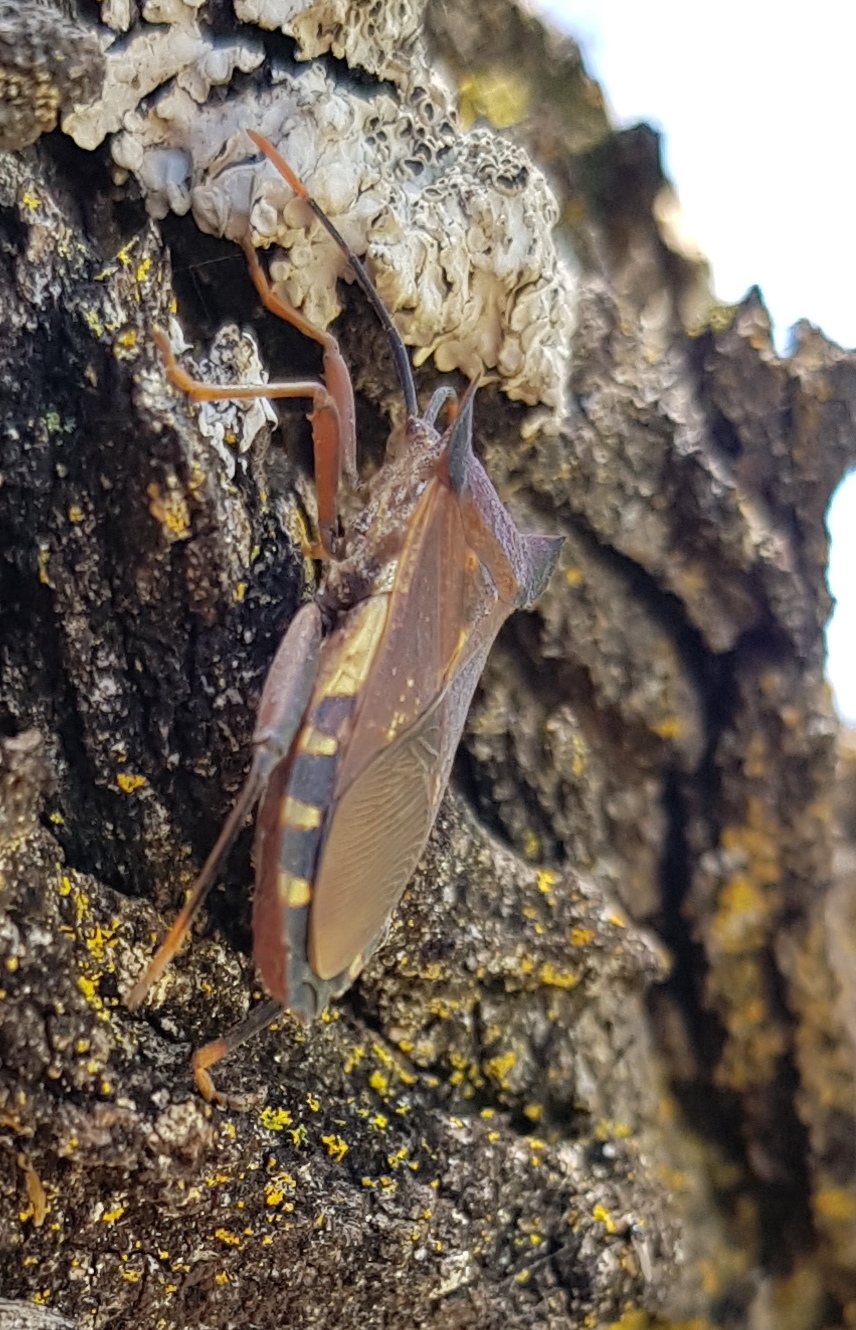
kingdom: Animalia
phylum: Arthropoda
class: Insecta
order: Hemiptera
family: Coreidae
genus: Mozena
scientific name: Mozena lunata
